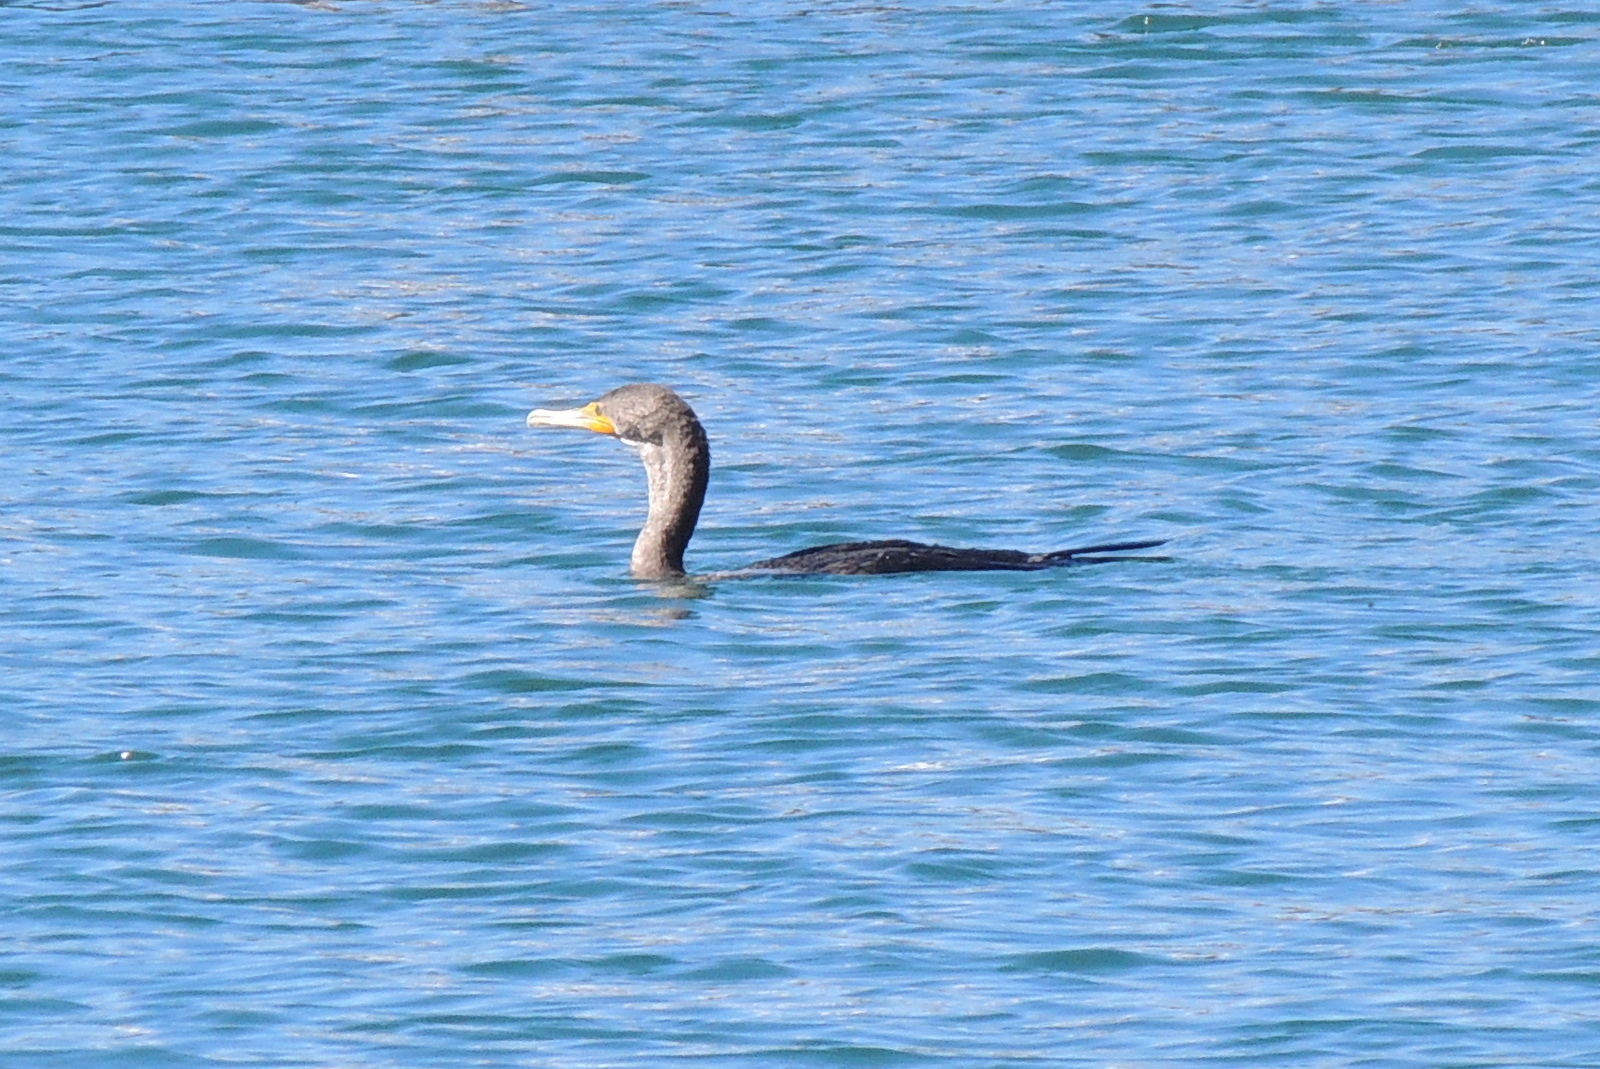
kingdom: Animalia
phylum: Chordata
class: Aves
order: Suliformes
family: Phalacrocoracidae
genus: Phalacrocorax
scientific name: Phalacrocorax auritus
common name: Double-crested cormorant
